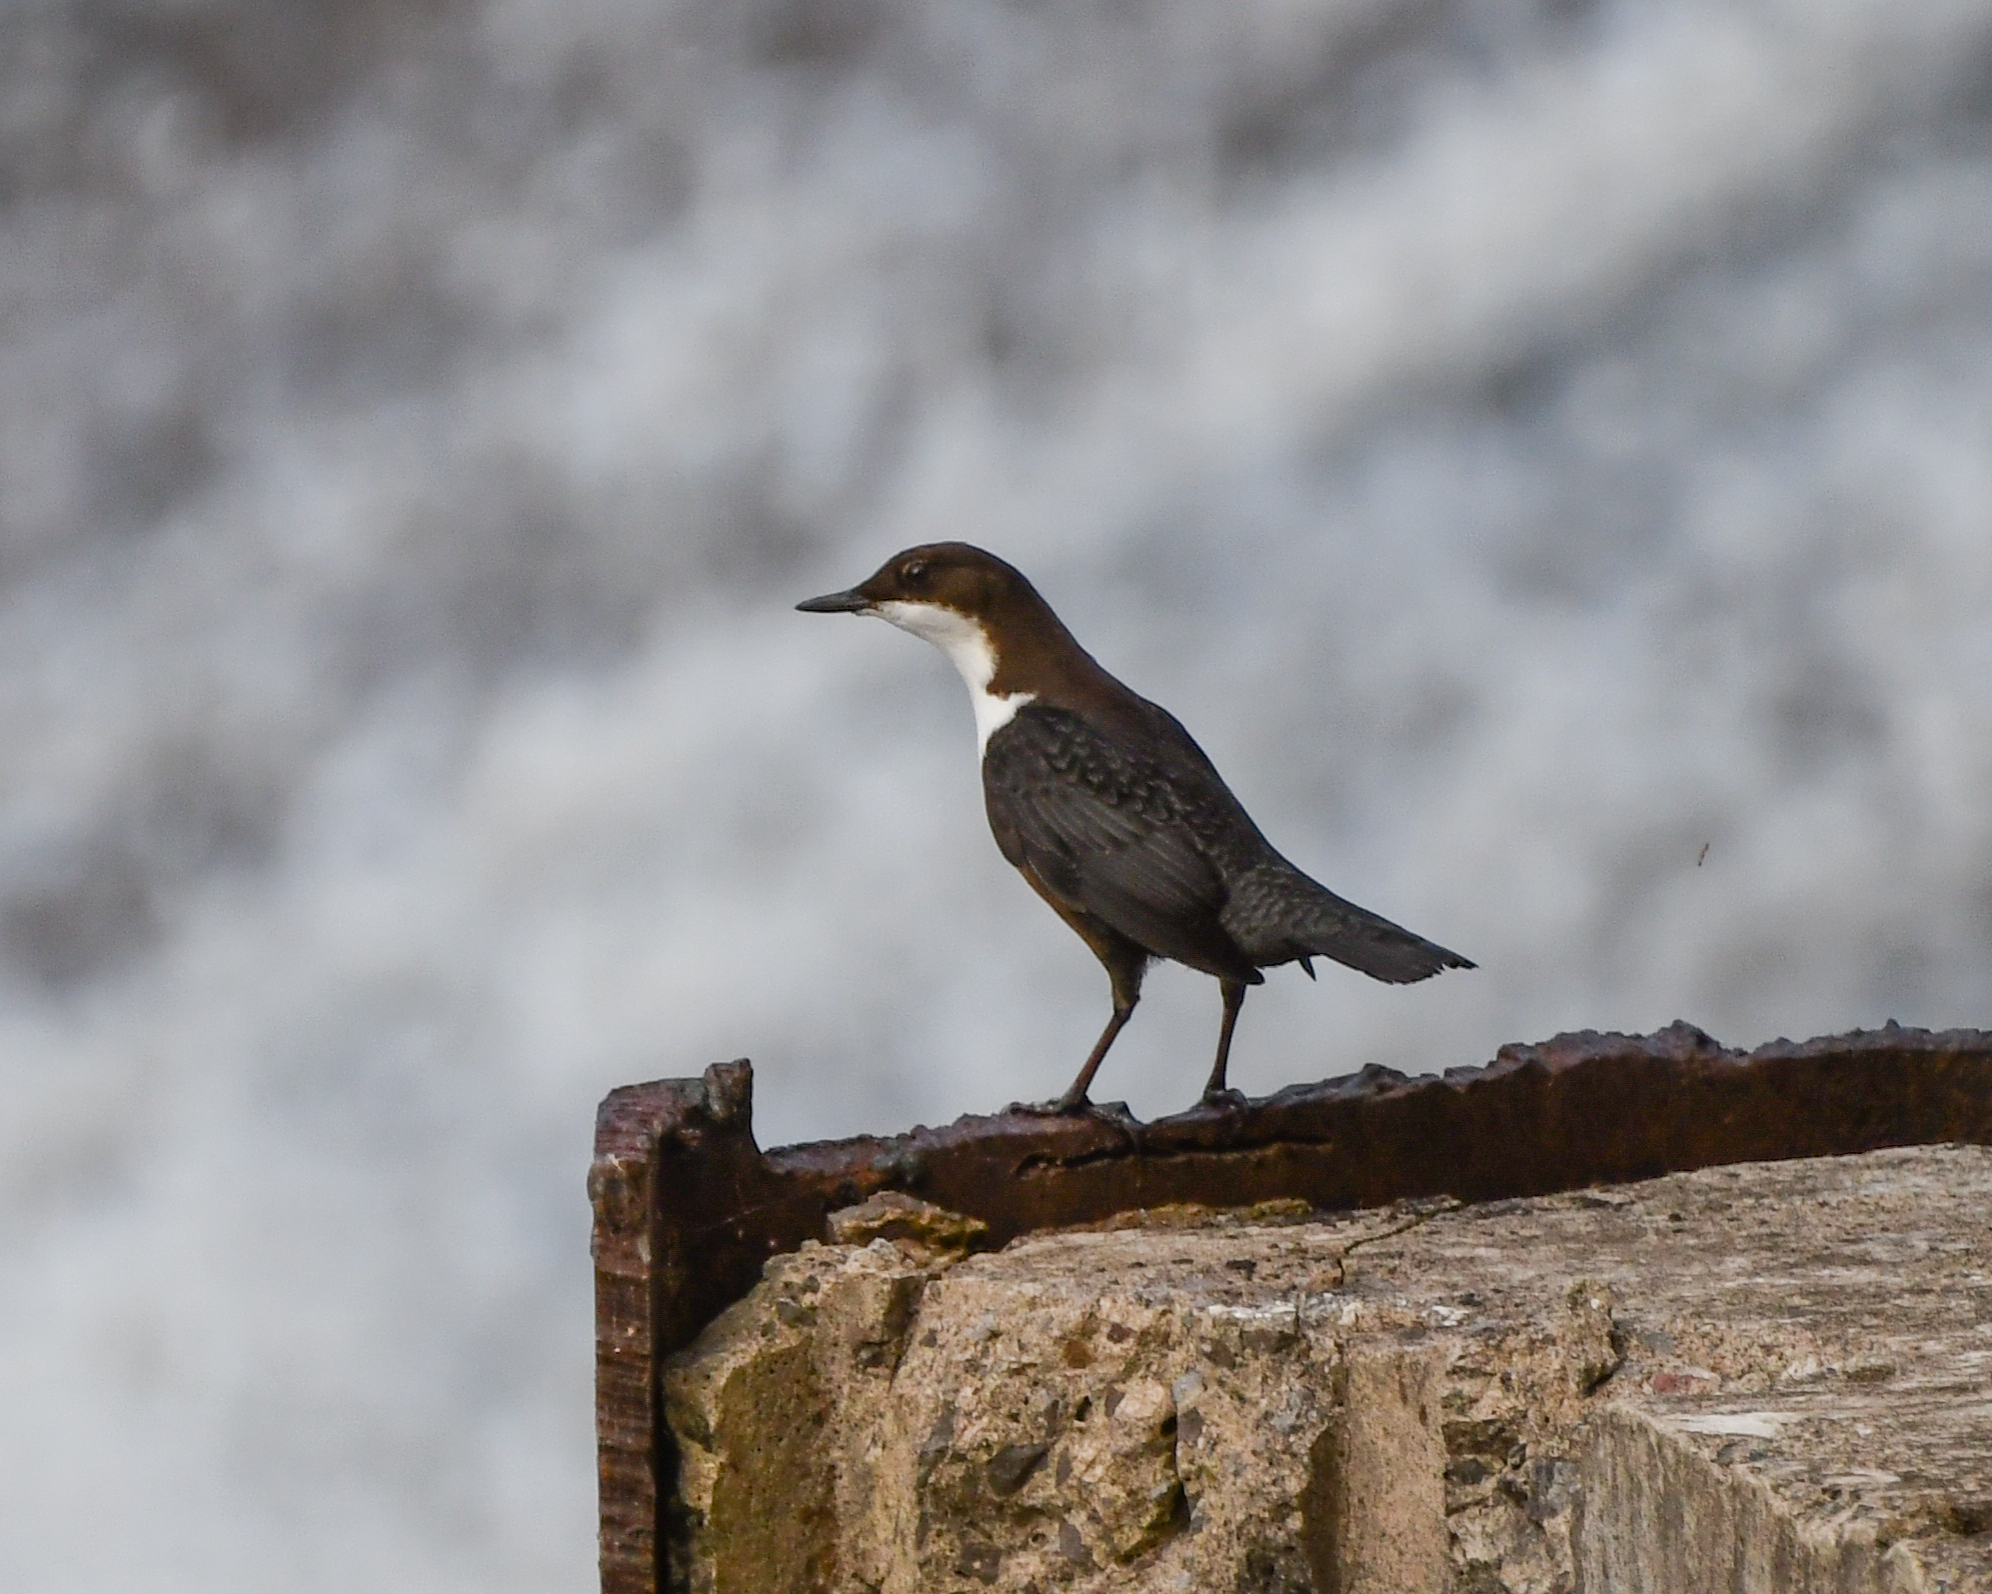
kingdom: Animalia
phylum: Chordata
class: Aves
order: Passeriformes
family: Cinclidae
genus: Cinclus
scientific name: Cinclus cinclus
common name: White-throated dipper
